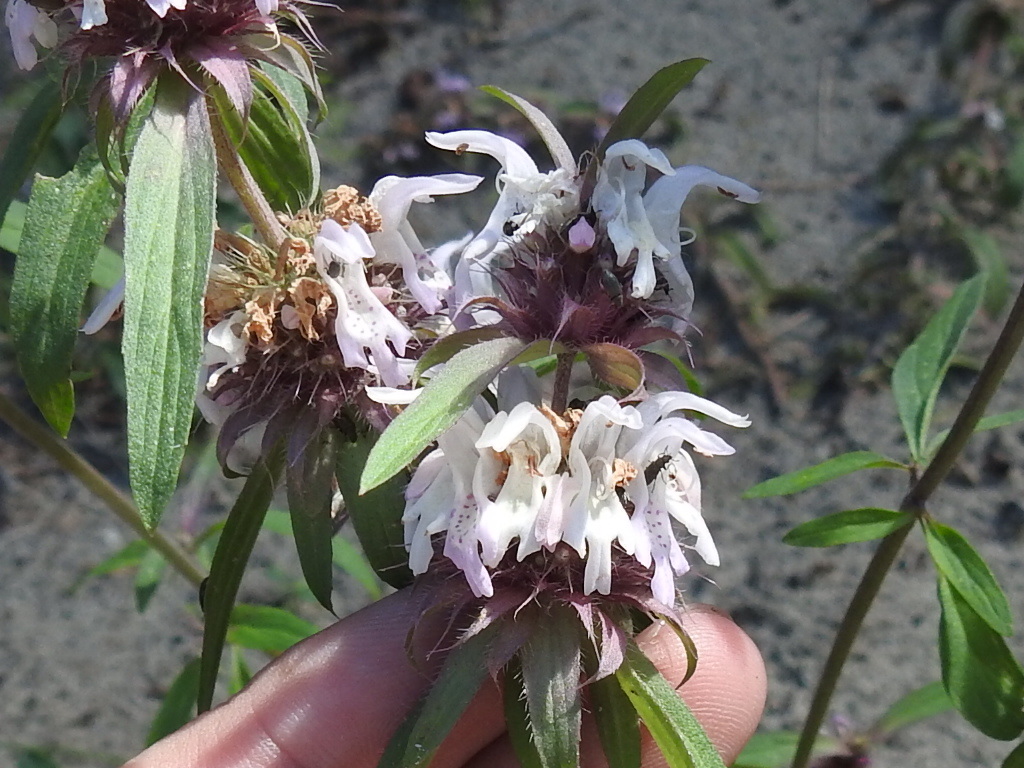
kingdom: Plantae
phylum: Tracheophyta
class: Magnoliopsida
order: Lamiales
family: Lamiaceae
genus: Monarda
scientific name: Monarda citriodora
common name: Lemon beebalm
